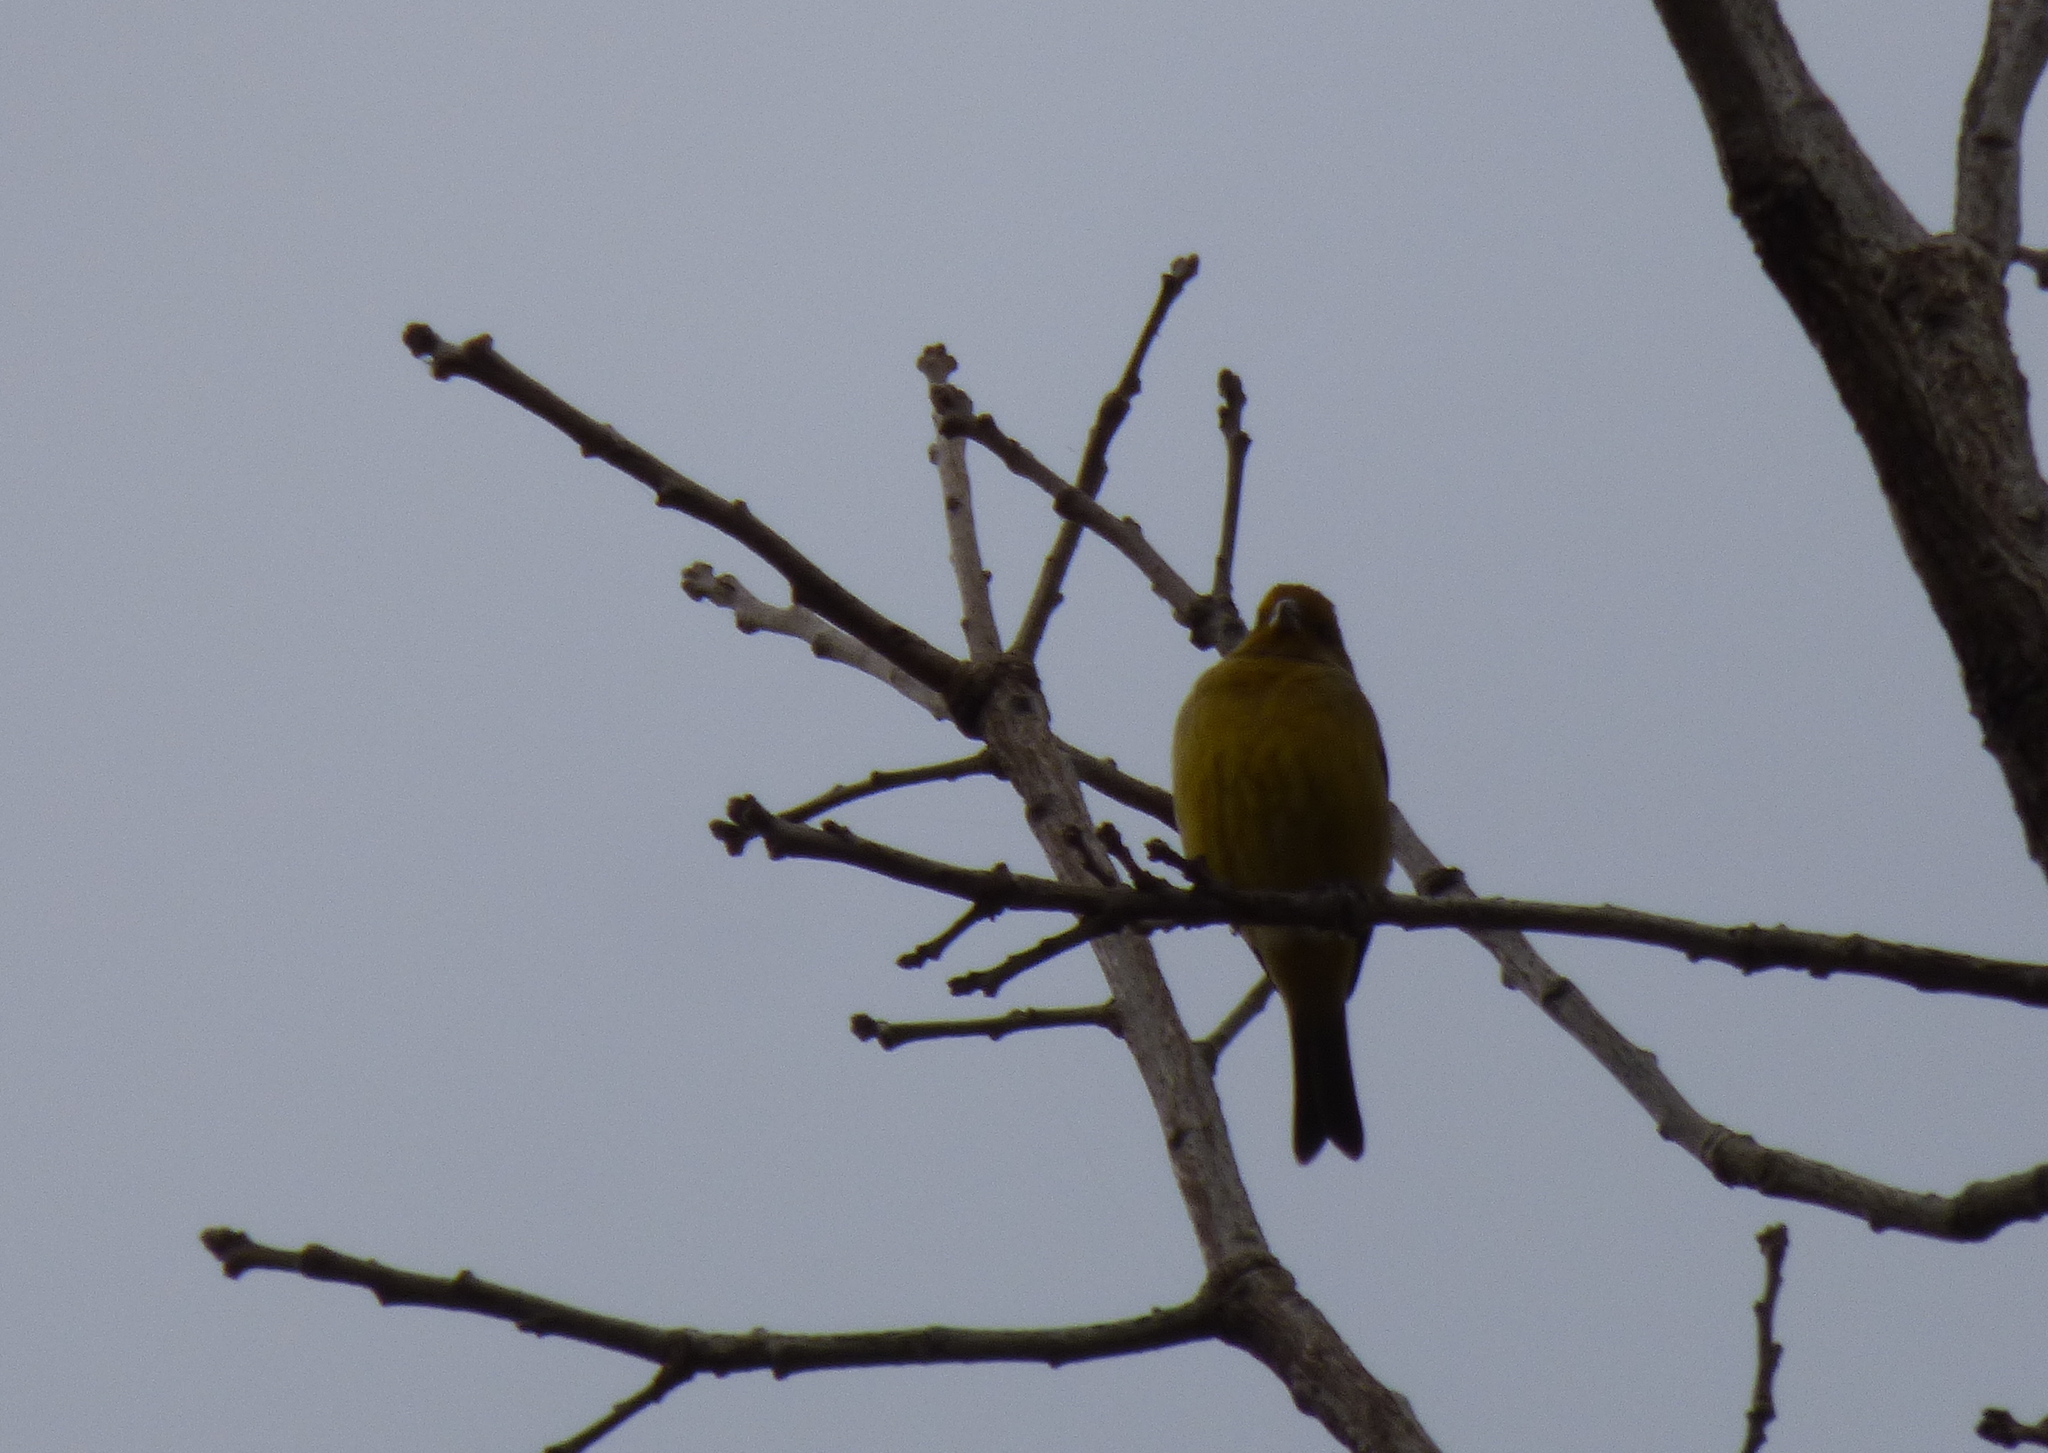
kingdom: Animalia
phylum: Chordata
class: Aves
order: Passeriformes
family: Thraupidae
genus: Sicalis
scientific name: Sicalis flaveola
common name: Saffron finch
